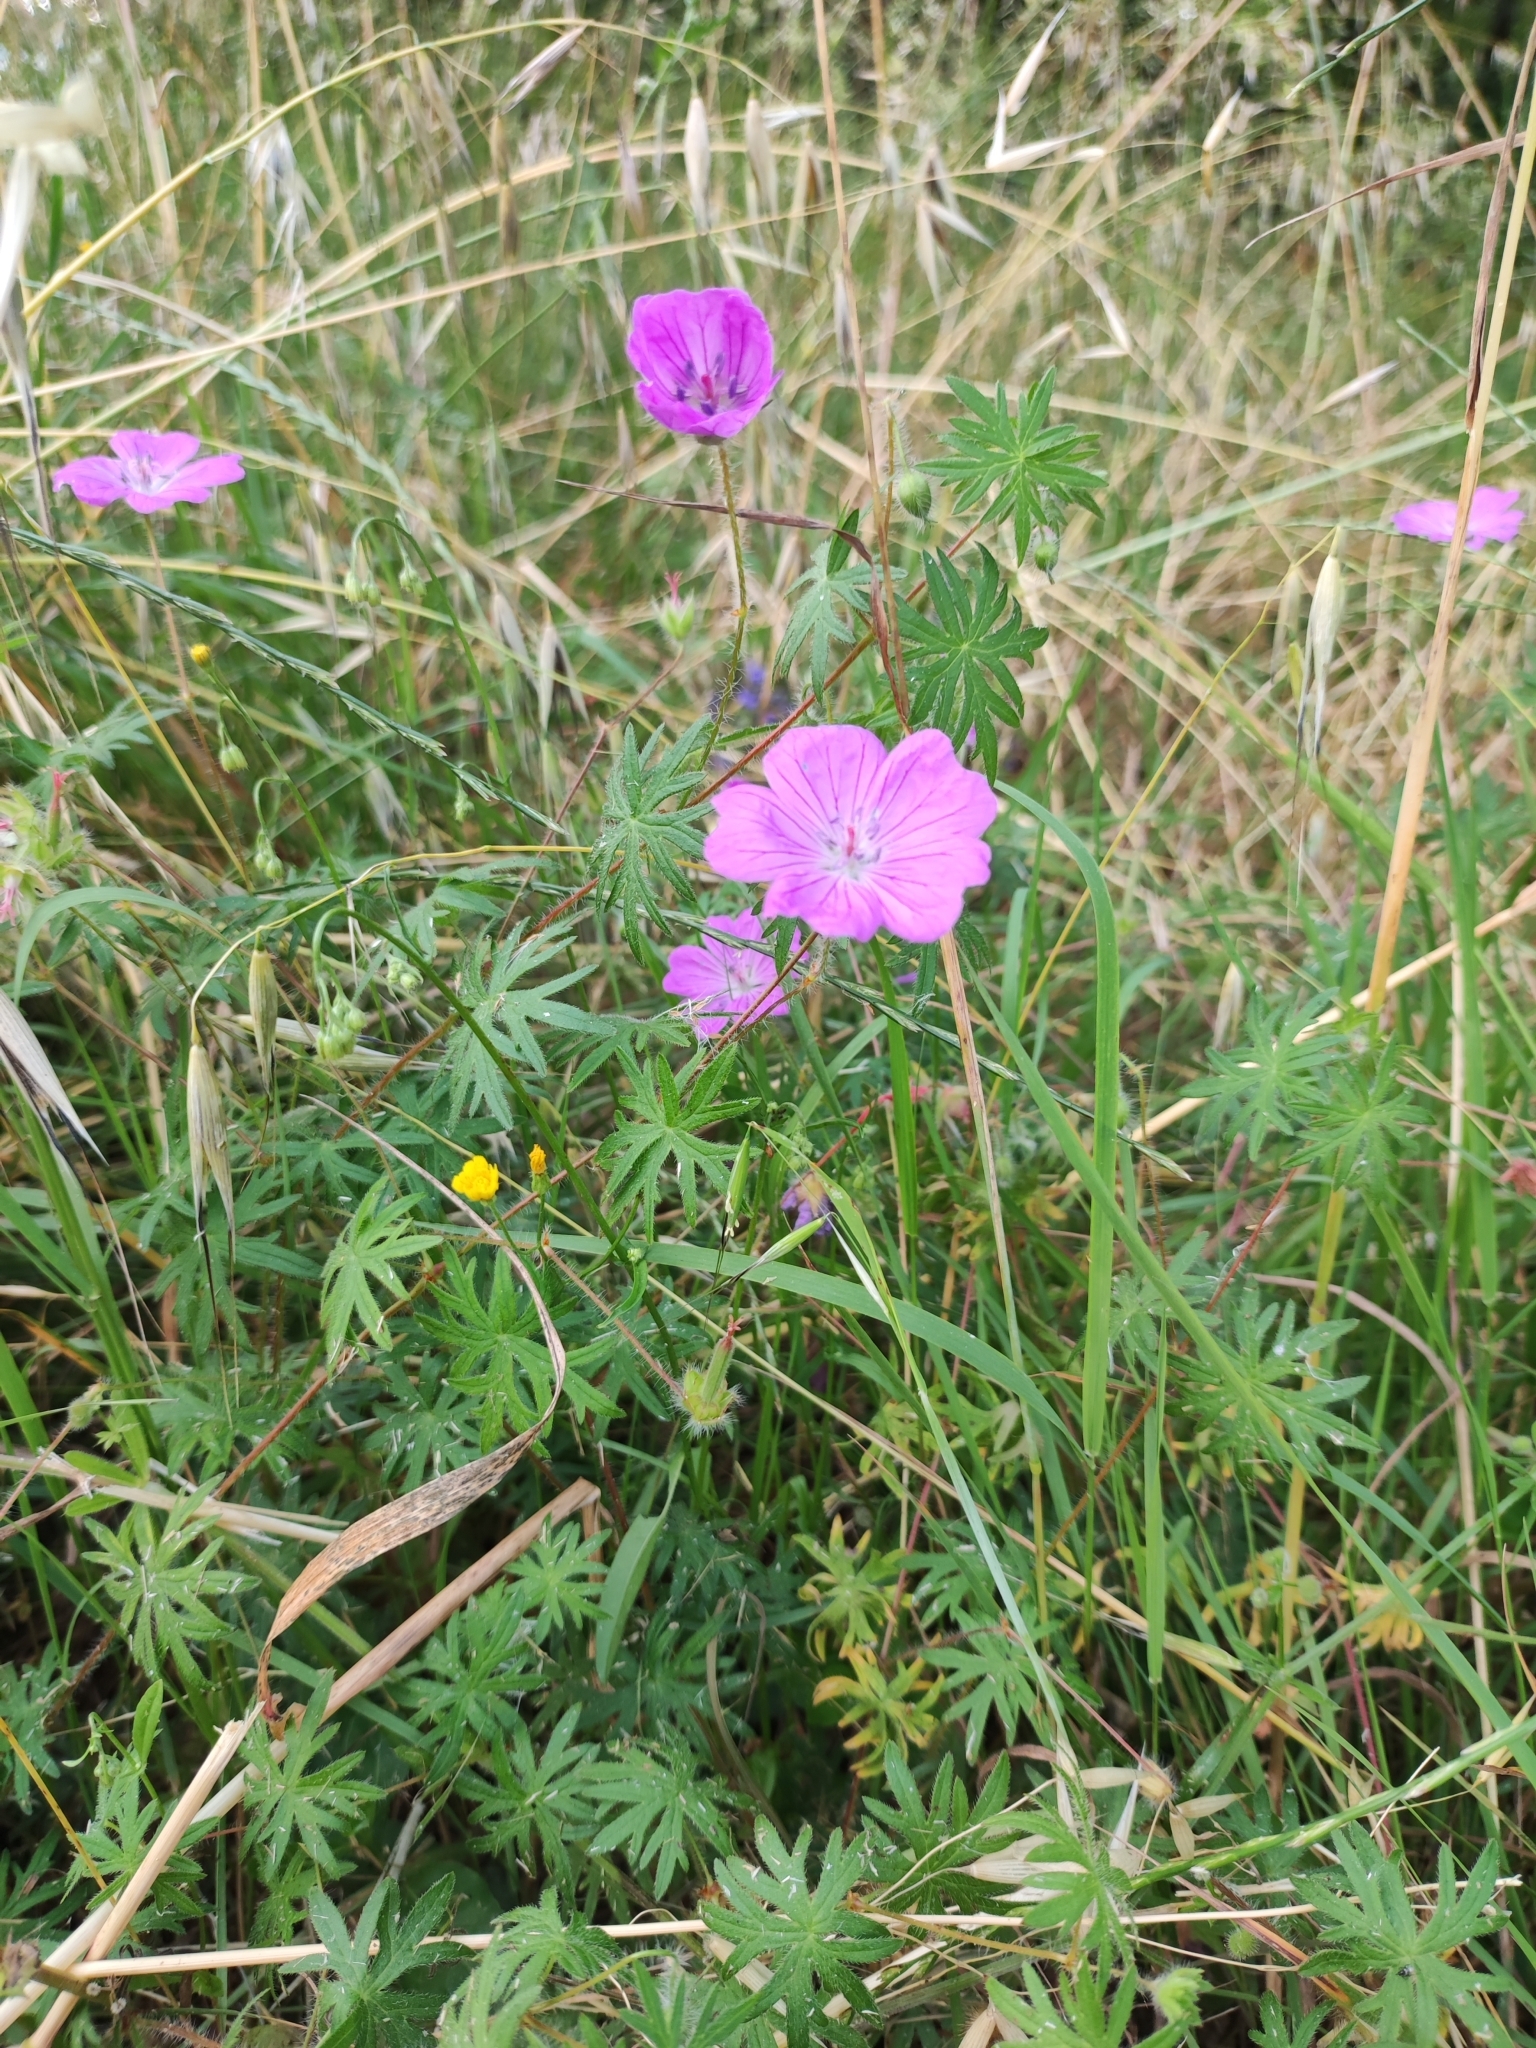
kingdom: Plantae
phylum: Tracheophyta
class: Magnoliopsida
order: Geraniales
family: Geraniaceae
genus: Geranium
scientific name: Geranium sanguineum
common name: Bloody crane's-bill
